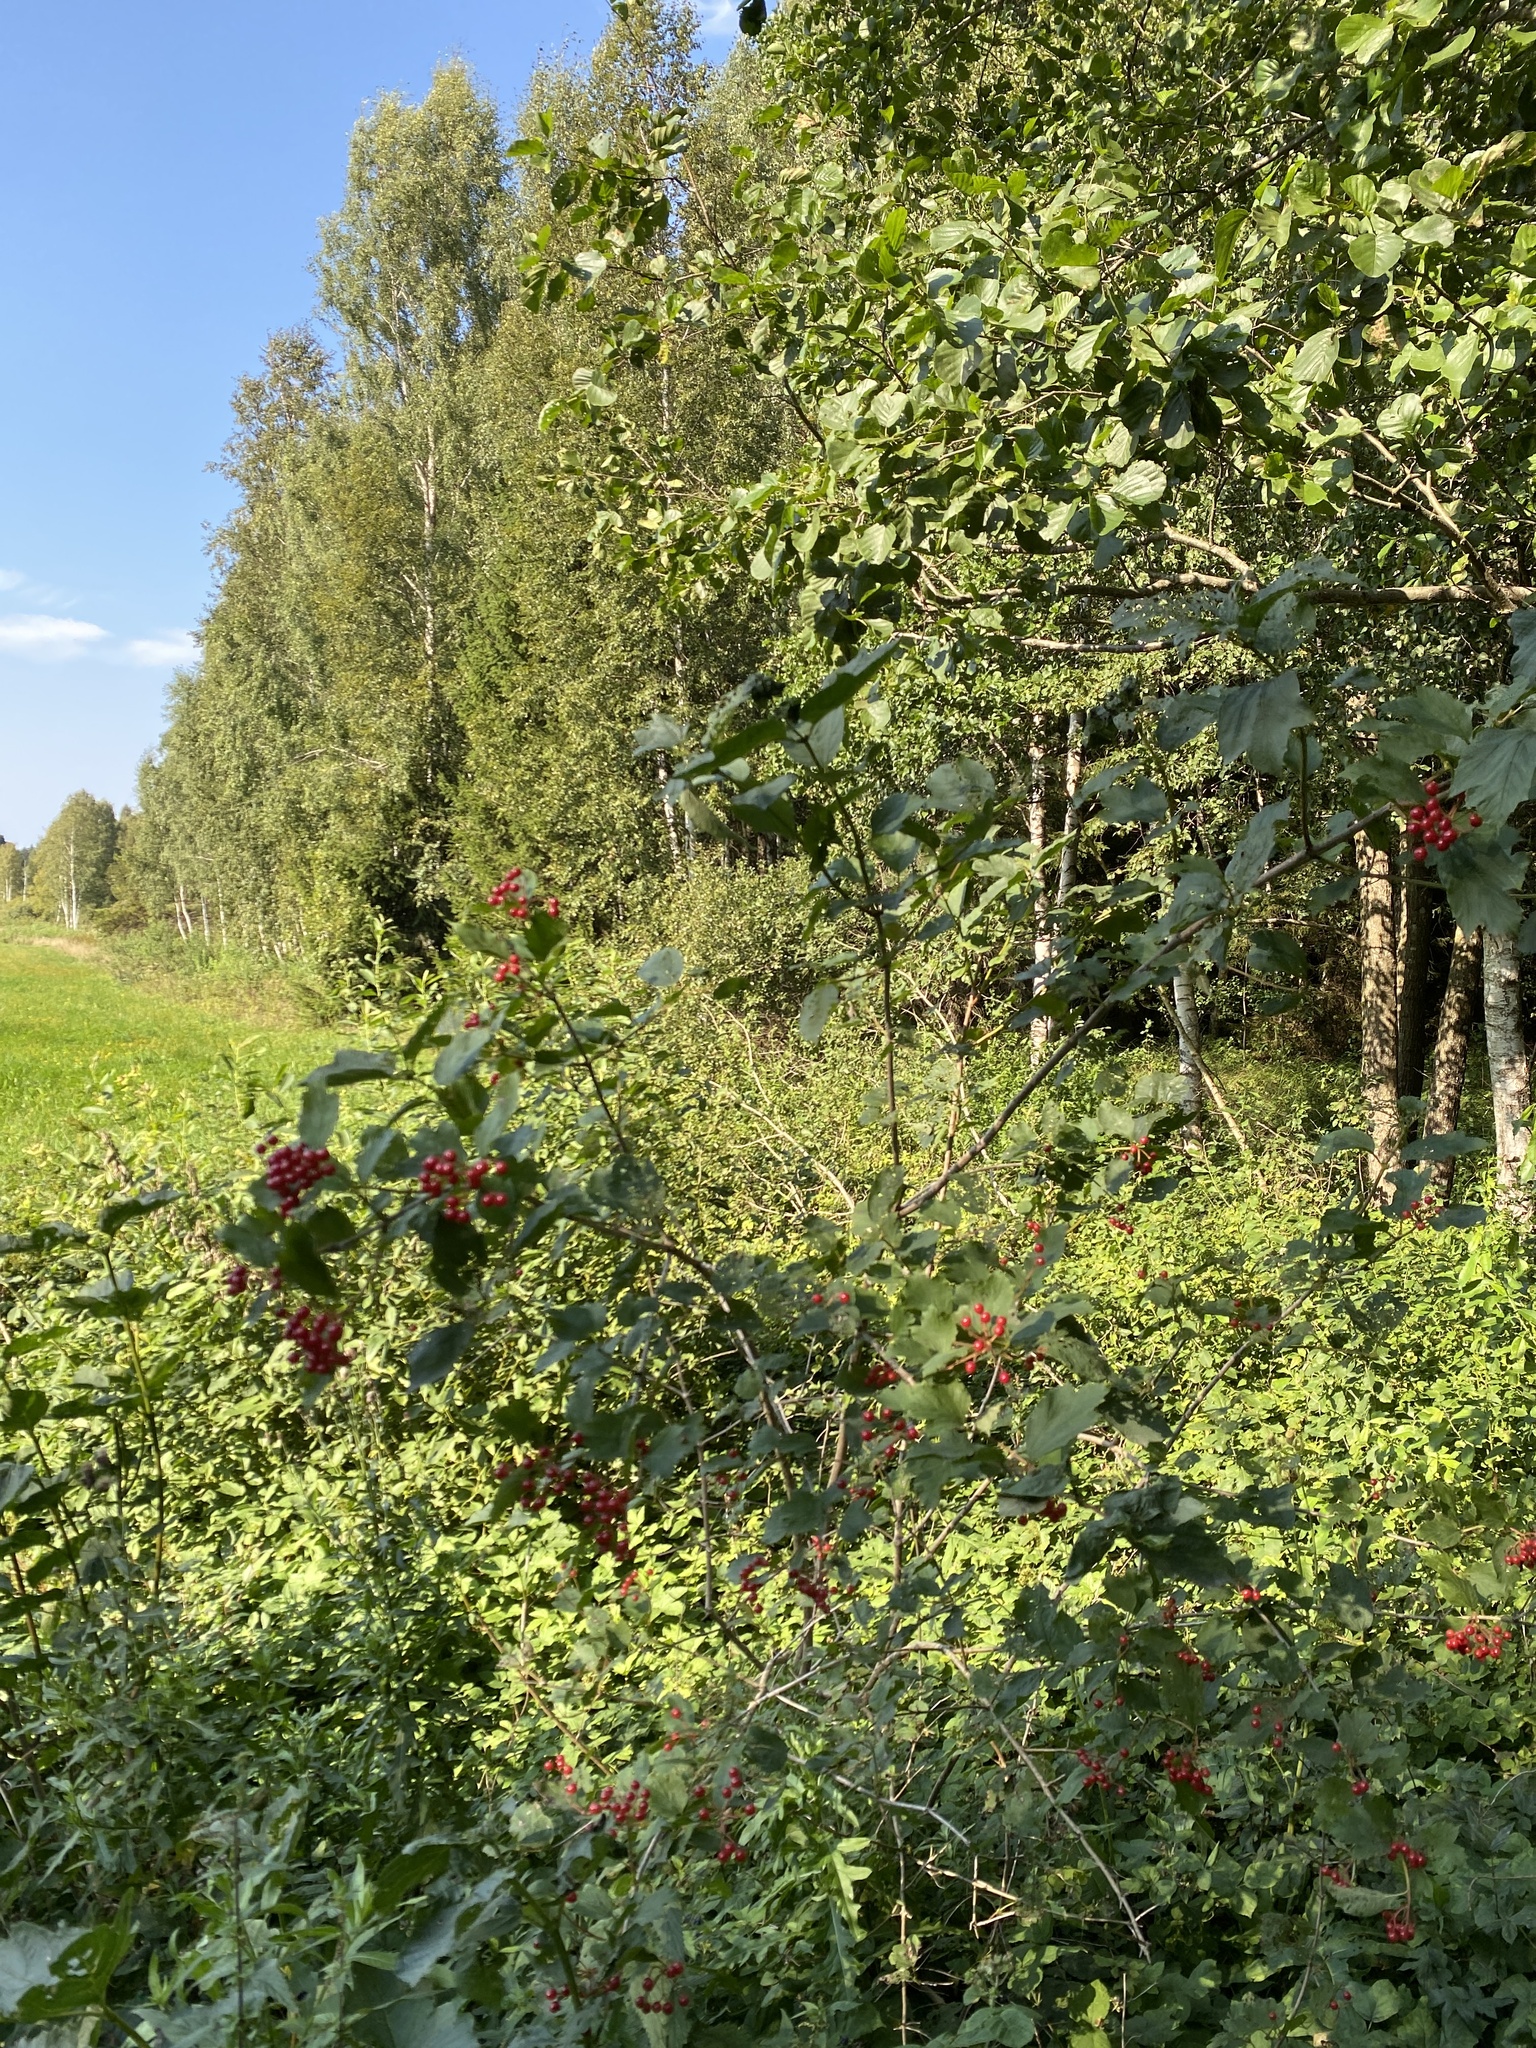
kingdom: Plantae
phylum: Tracheophyta
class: Magnoliopsida
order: Dipsacales
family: Viburnaceae
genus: Viburnum
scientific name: Viburnum opulus
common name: Guelder-rose
